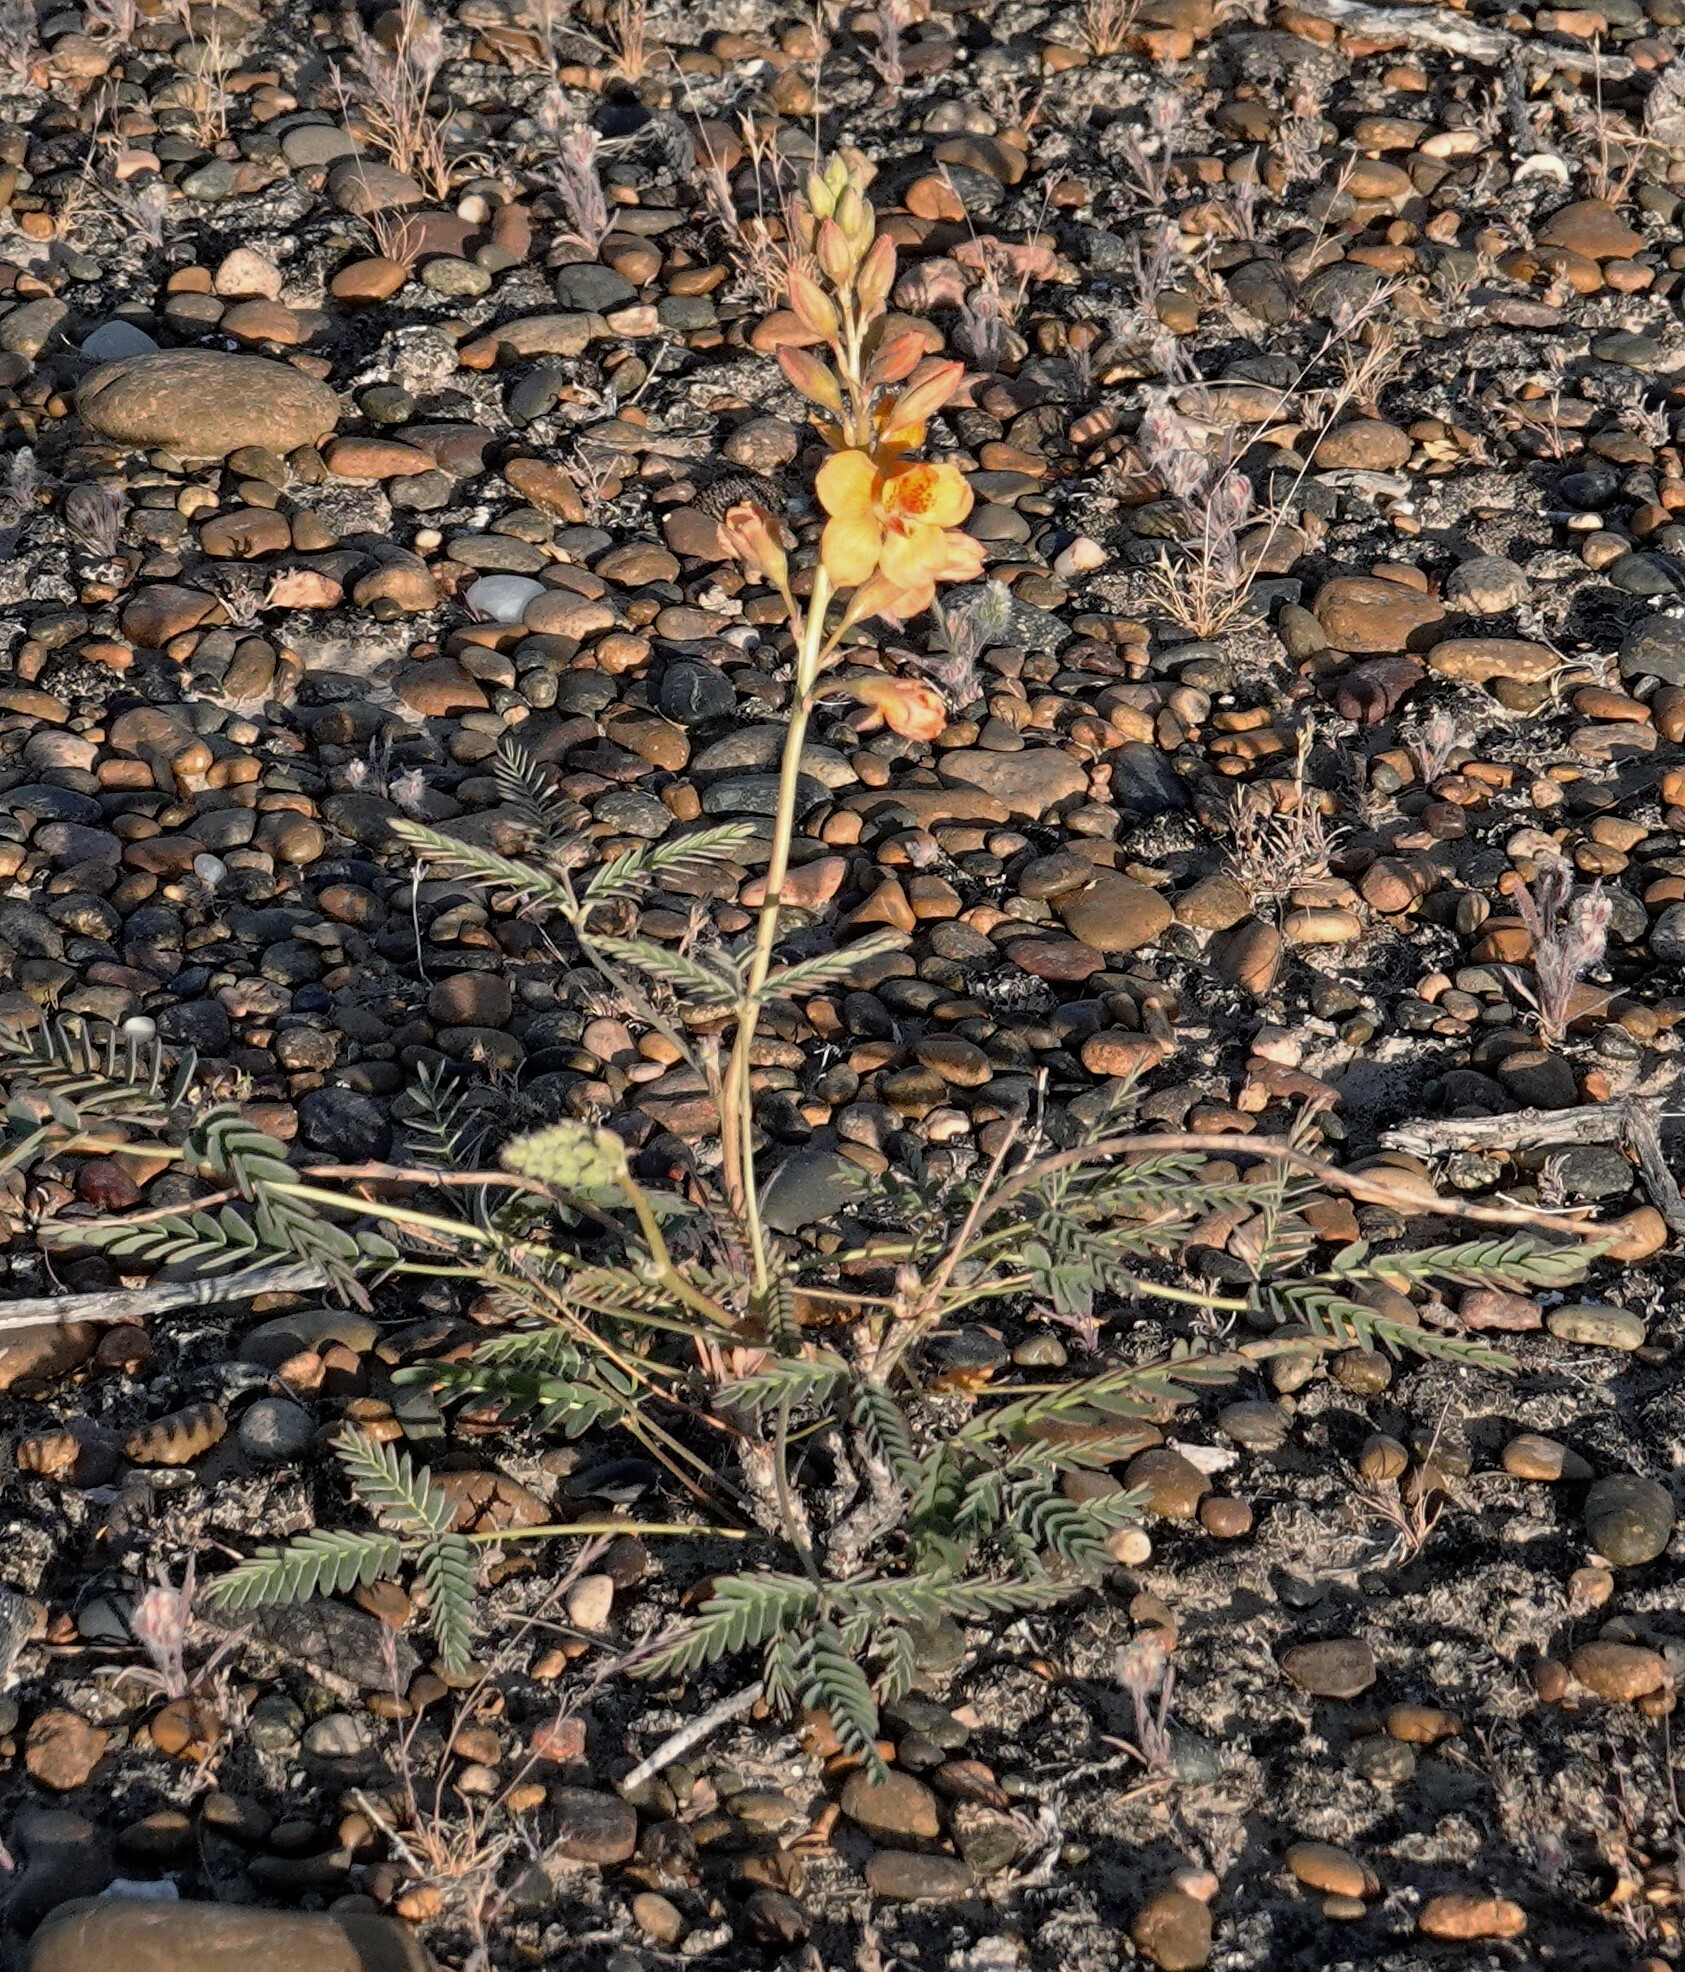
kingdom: Plantae
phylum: Tracheophyta
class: Magnoliopsida
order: Fabales
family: Fabaceae
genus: Hoffmannseggia
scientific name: Hoffmannseggia glauca
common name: Pignut
